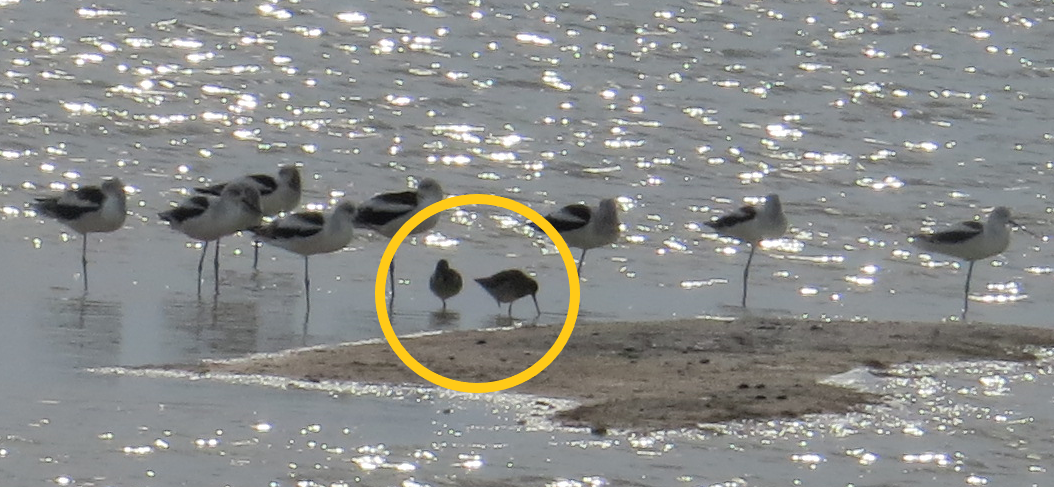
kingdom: Animalia
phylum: Chordata
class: Aves
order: Charadriiformes
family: Scolopacidae
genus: Limnodromus
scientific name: Limnodromus
